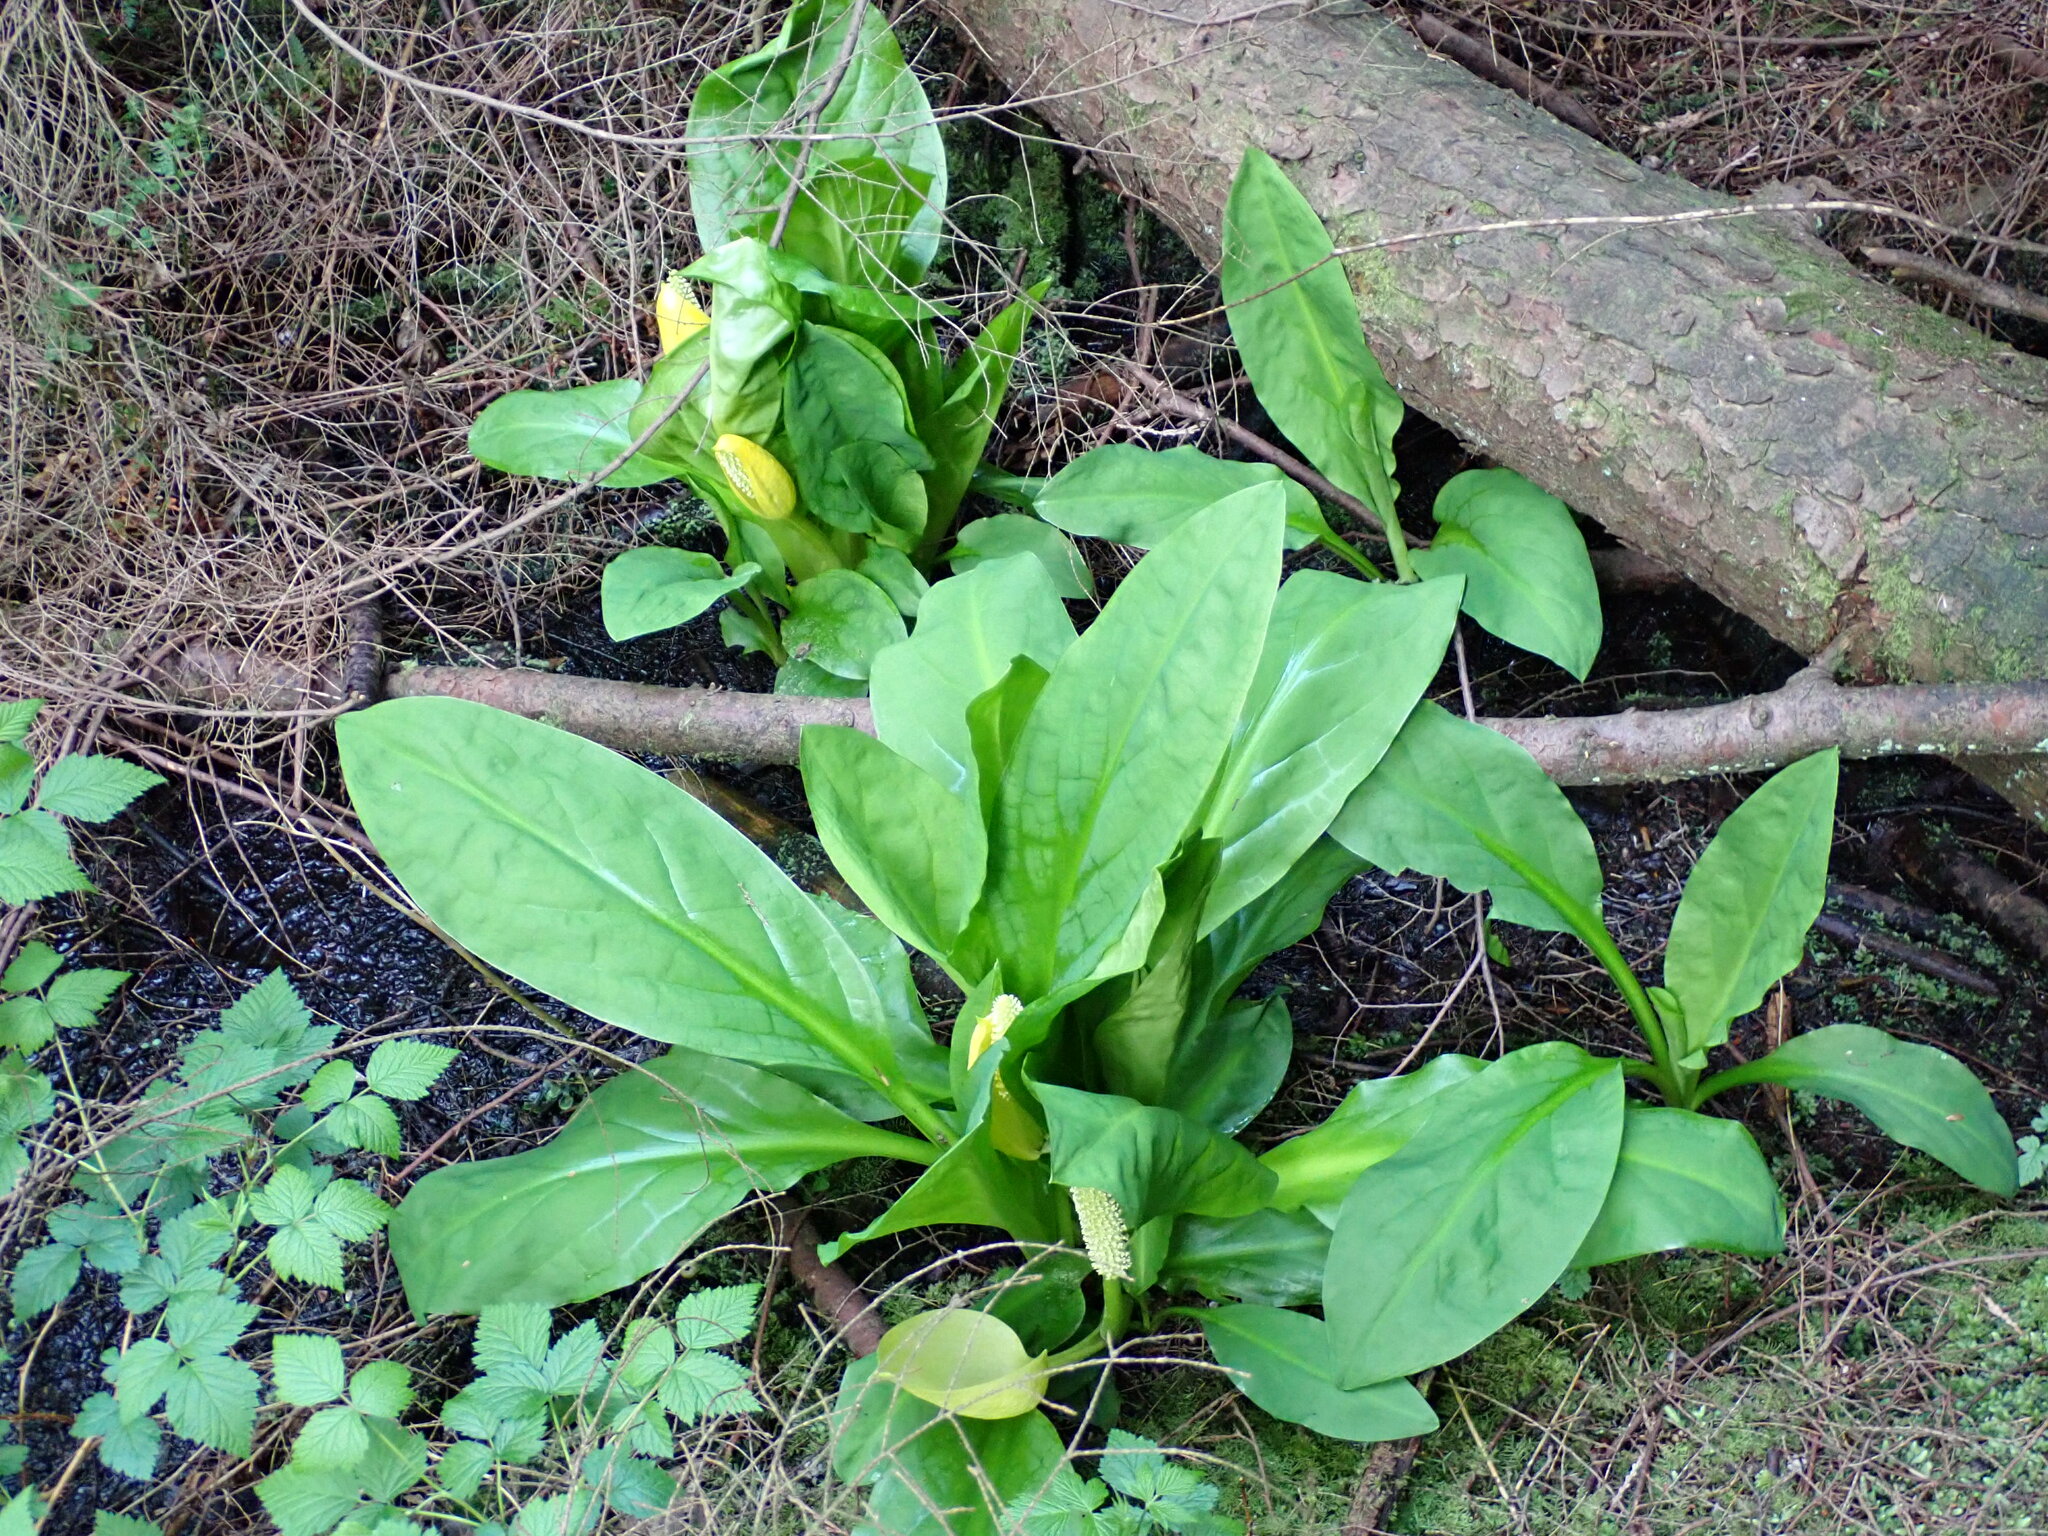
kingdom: Plantae
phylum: Tracheophyta
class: Liliopsida
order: Alismatales
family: Araceae
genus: Lysichiton
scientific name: Lysichiton americanus
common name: American skunk cabbage
